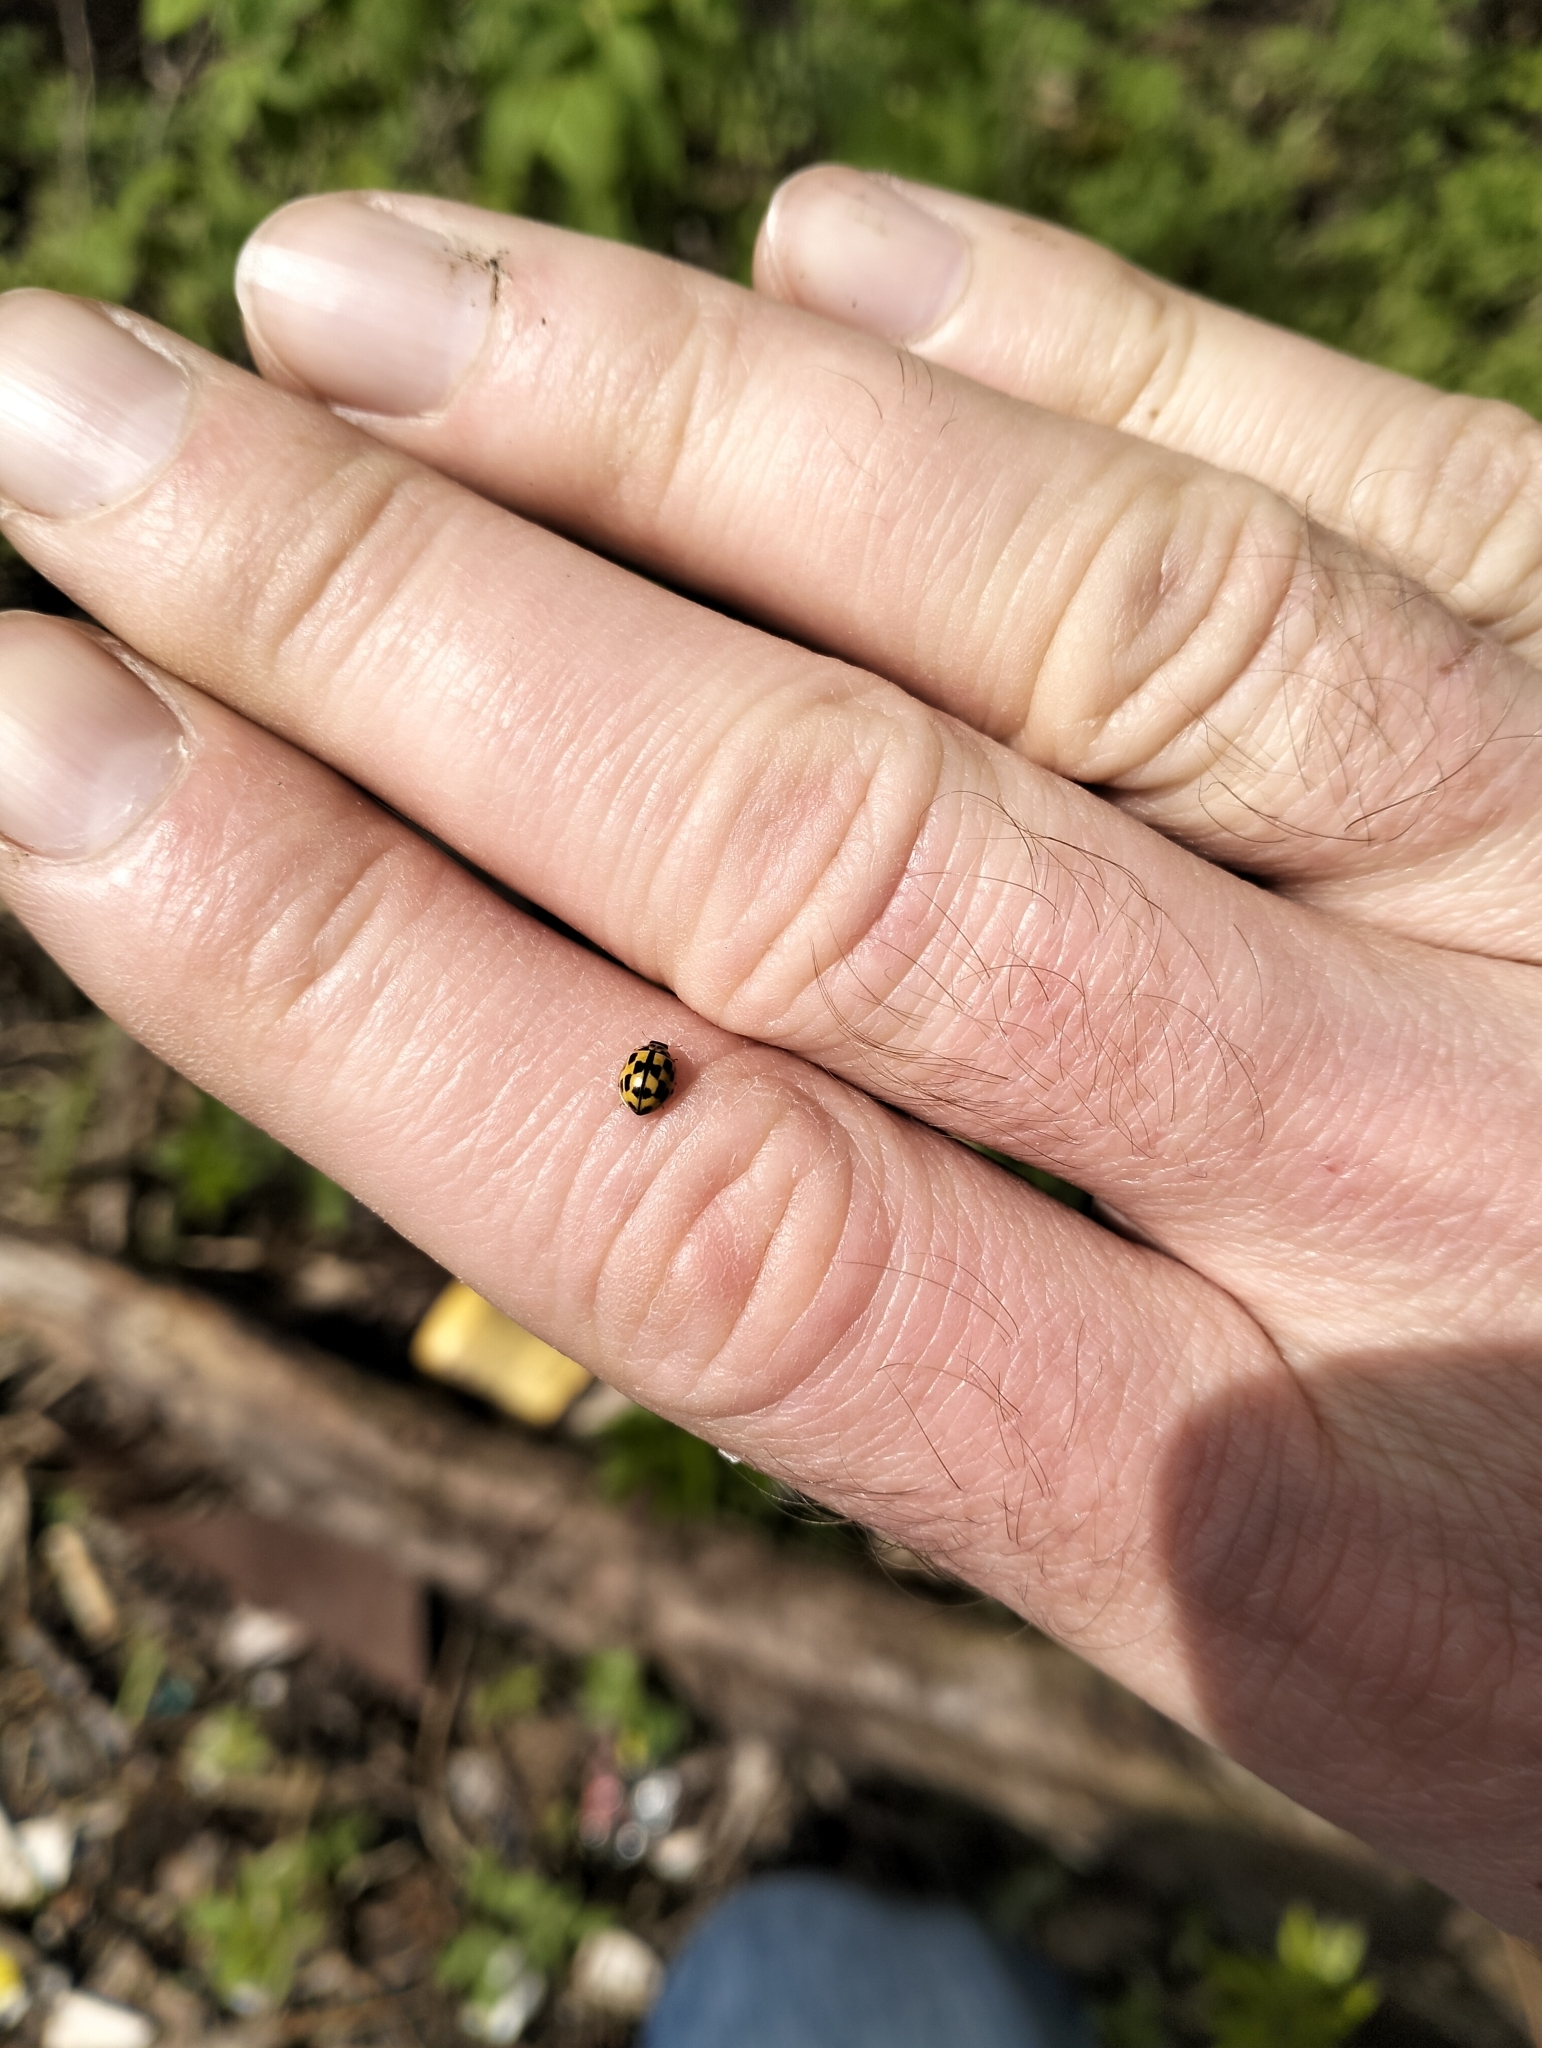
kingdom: Animalia
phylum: Arthropoda
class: Insecta
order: Coleoptera
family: Coccinellidae
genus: Propylaea
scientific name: Propylaea quatuordecimpunctata
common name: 14-spotted ladybird beetle
